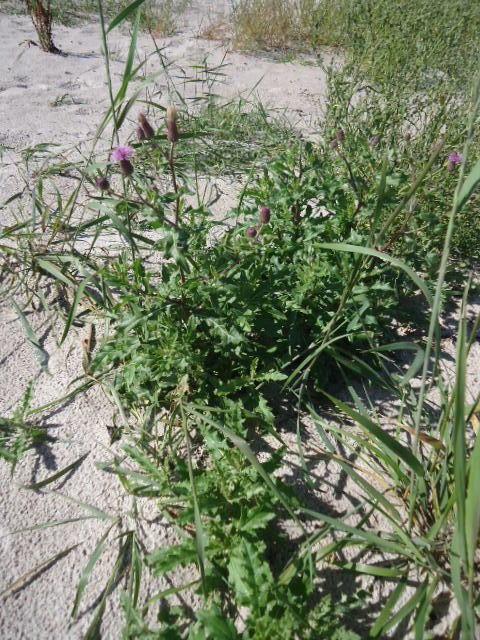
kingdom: Plantae
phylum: Tracheophyta
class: Magnoliopsida
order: Asterales
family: Asteraceae
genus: Cirsium
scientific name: Cirsium arvense
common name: Creeping thistle
